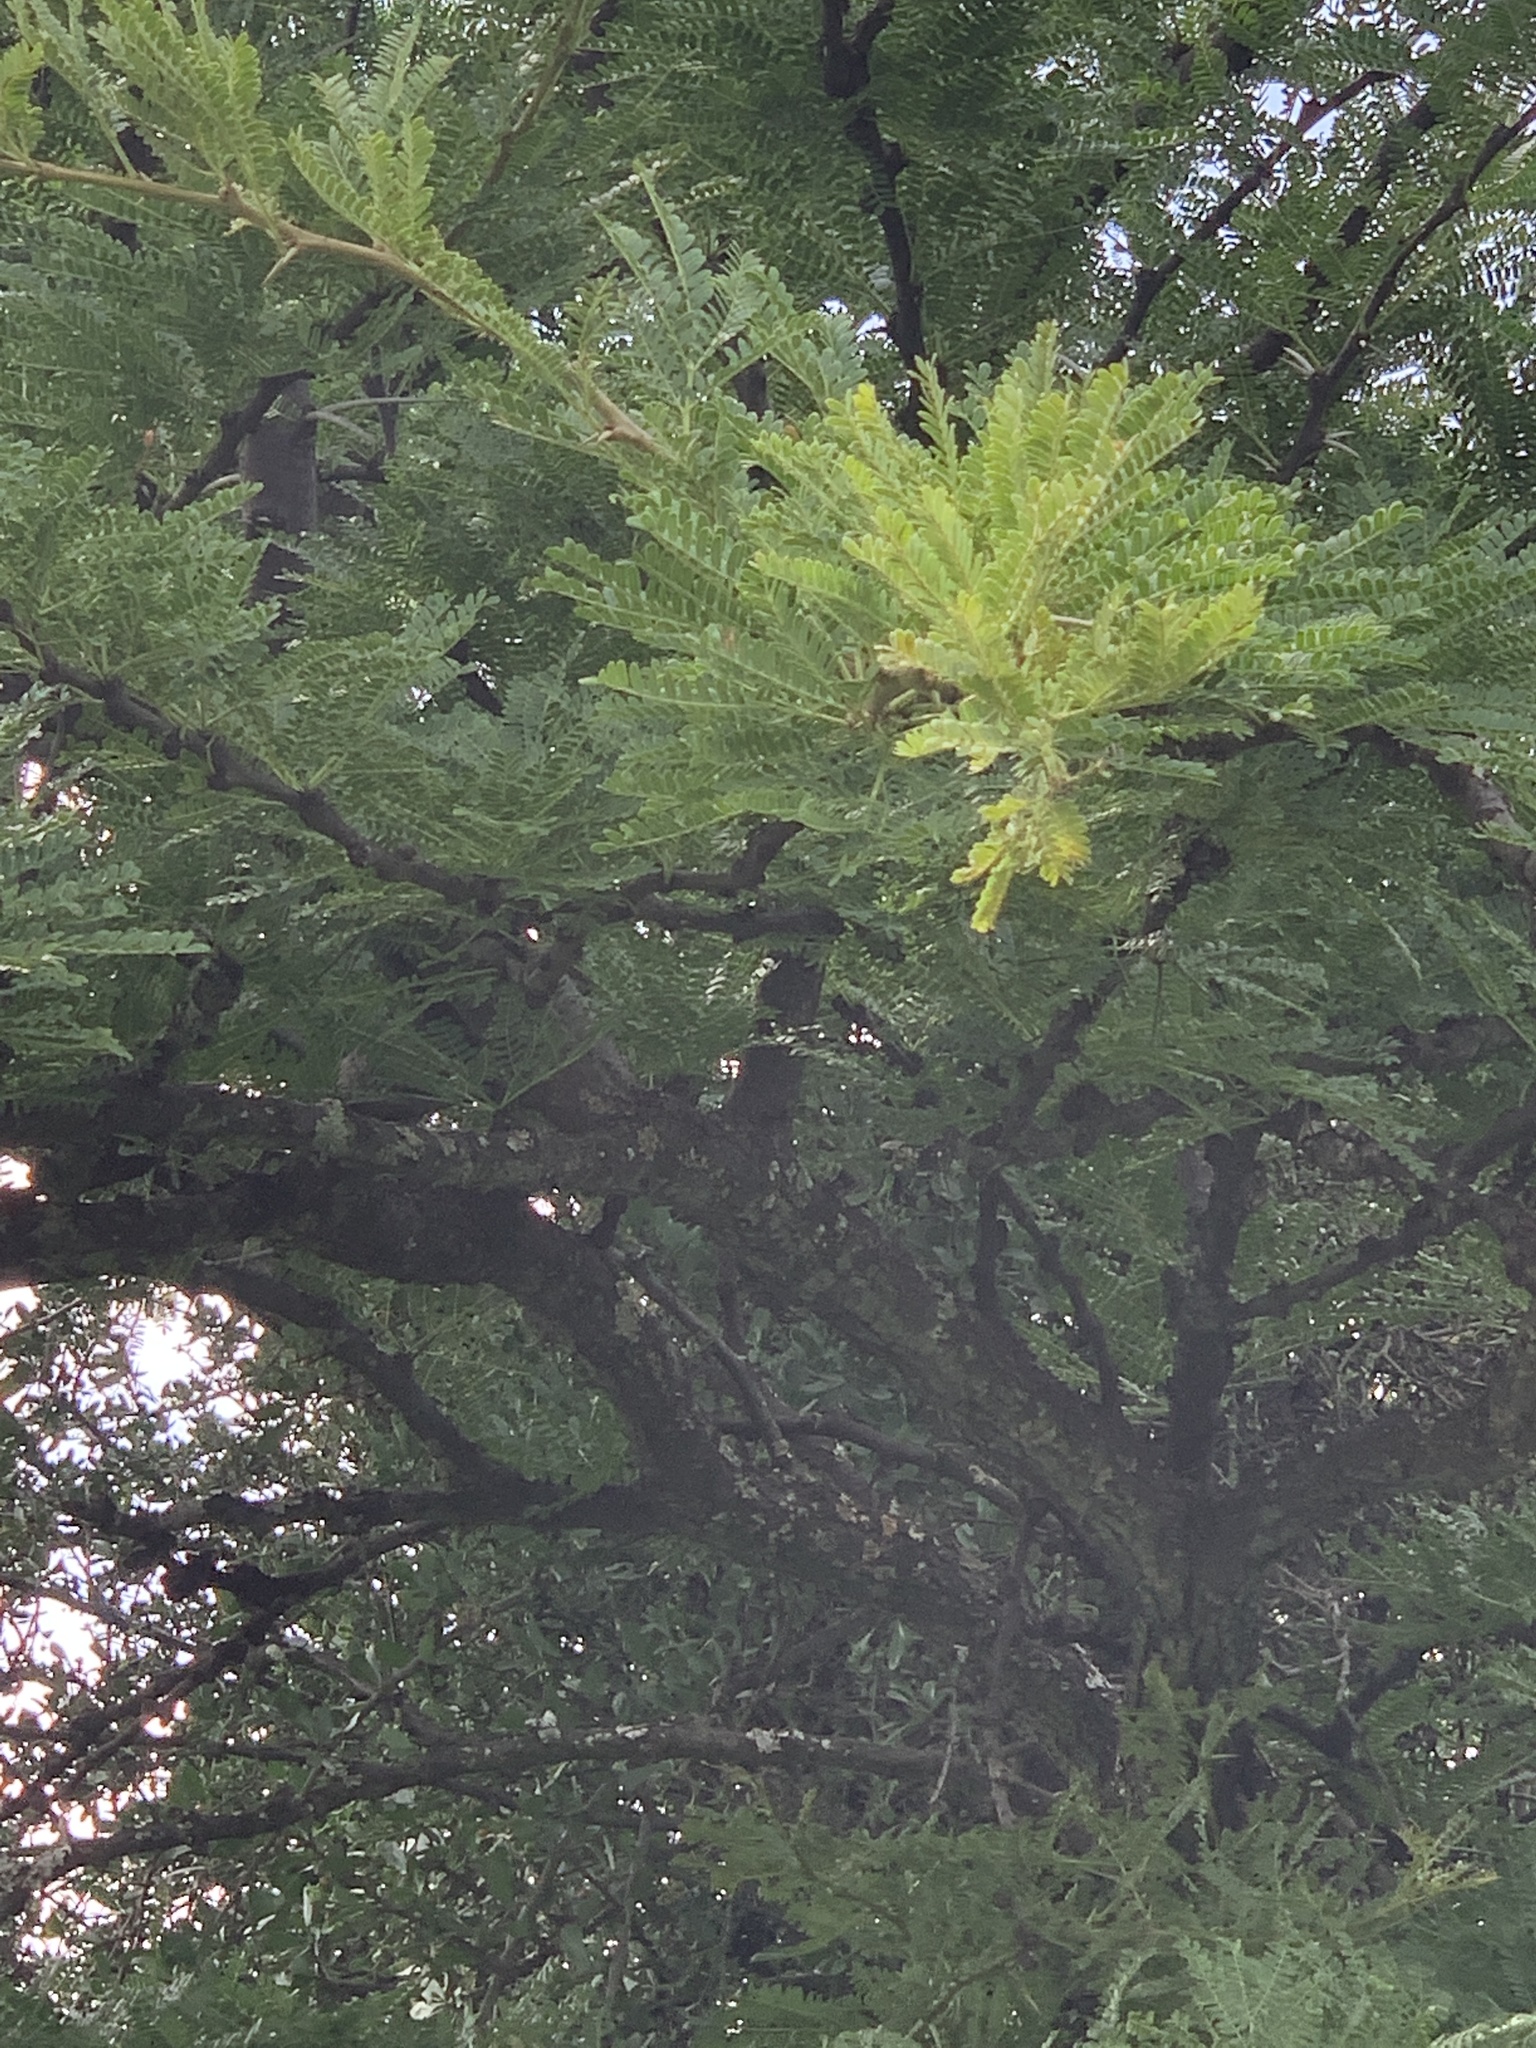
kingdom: Plantae
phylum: Tracheophyta
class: Magnoliopsida
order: Fabales
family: Fabaceae
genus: Vachellia
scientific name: Vachellia robusta
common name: Ankle thorn
